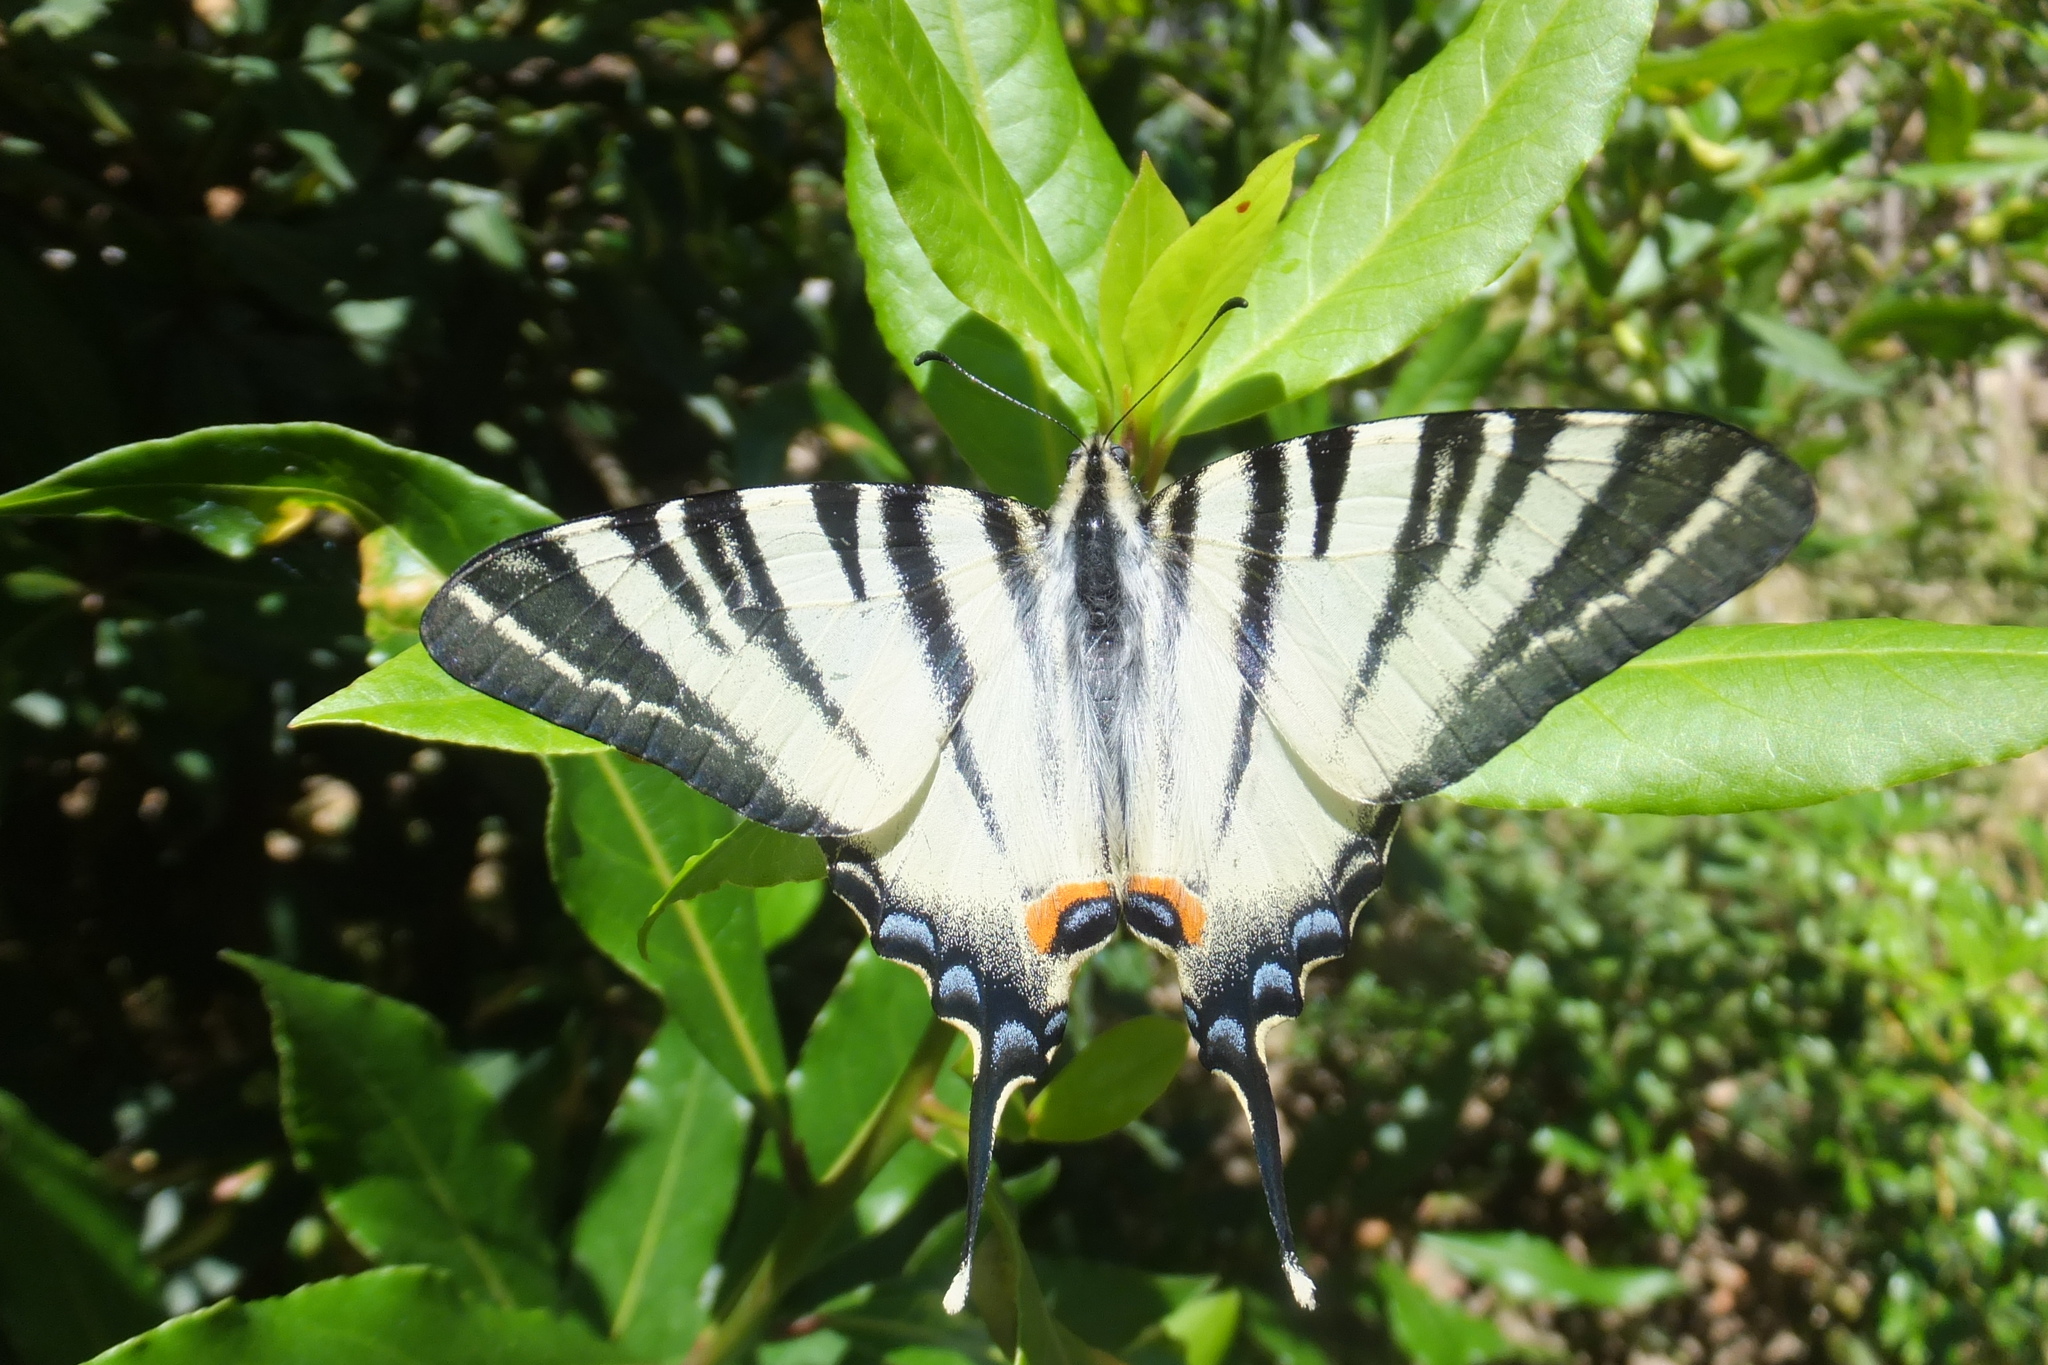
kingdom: Animalia
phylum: Arthropoda
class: Insecta
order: Lepidoptera
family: Papilionidae
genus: Iphiclides
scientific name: Iphiclides podalirius
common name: Scarce swallowtail
